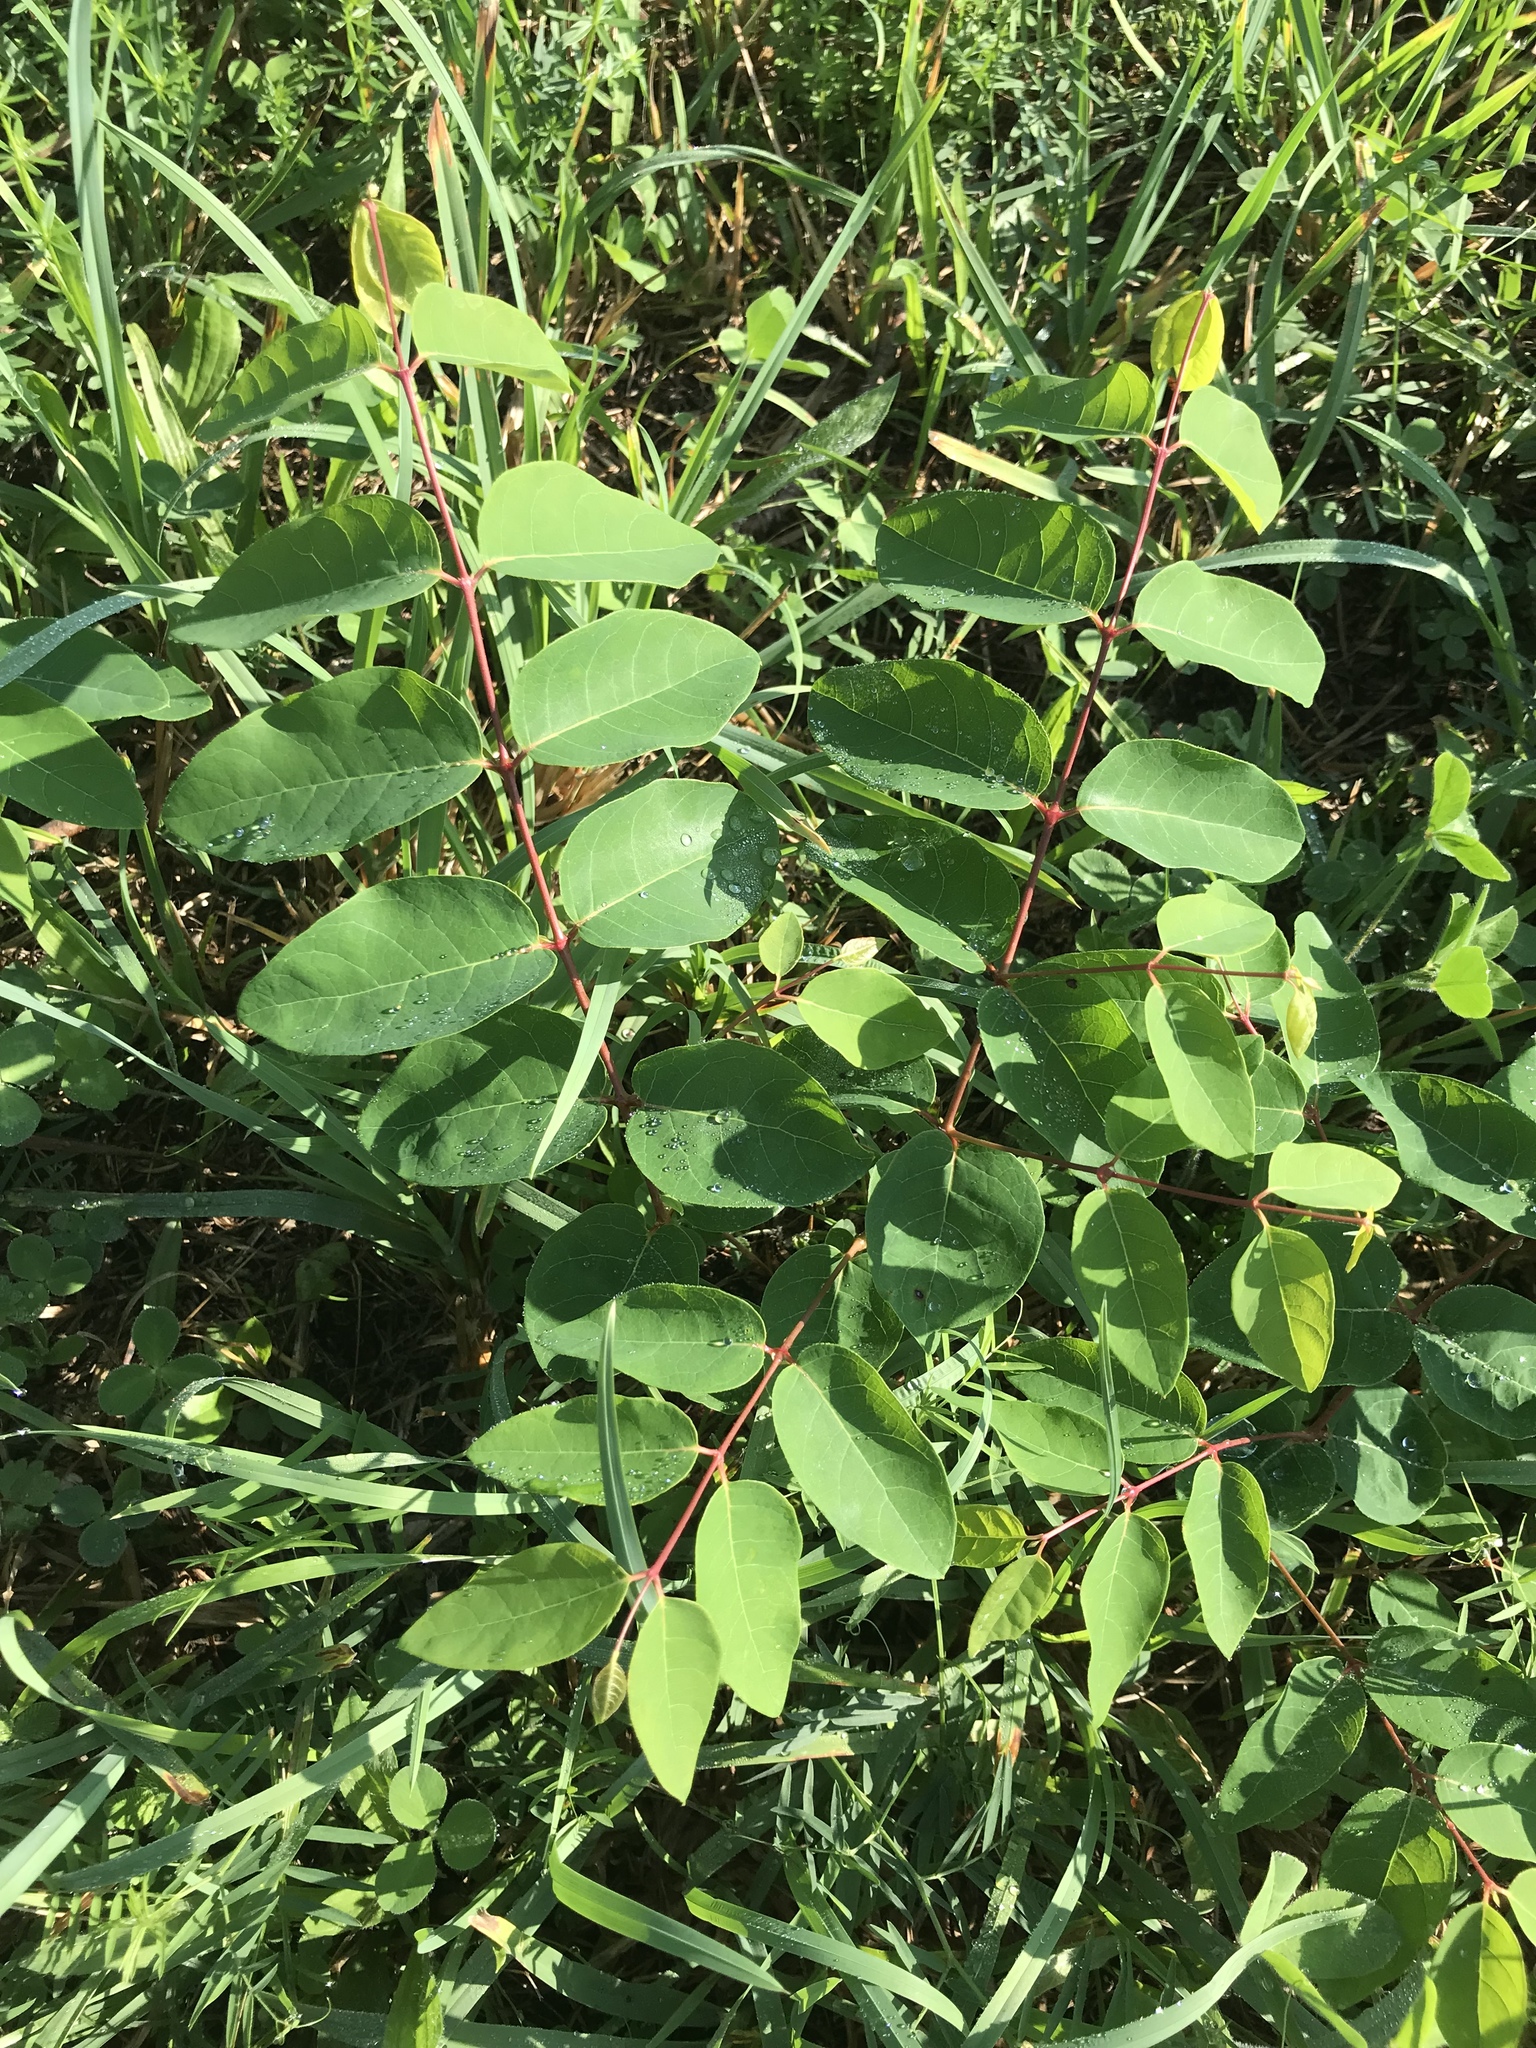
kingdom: Plantae
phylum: Tracheophyta
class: Magnoliopsida
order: Gentianales
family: Apocynaceae
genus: Apocynum
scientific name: Apocynum androsaemifolium
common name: Spreading dogbane
